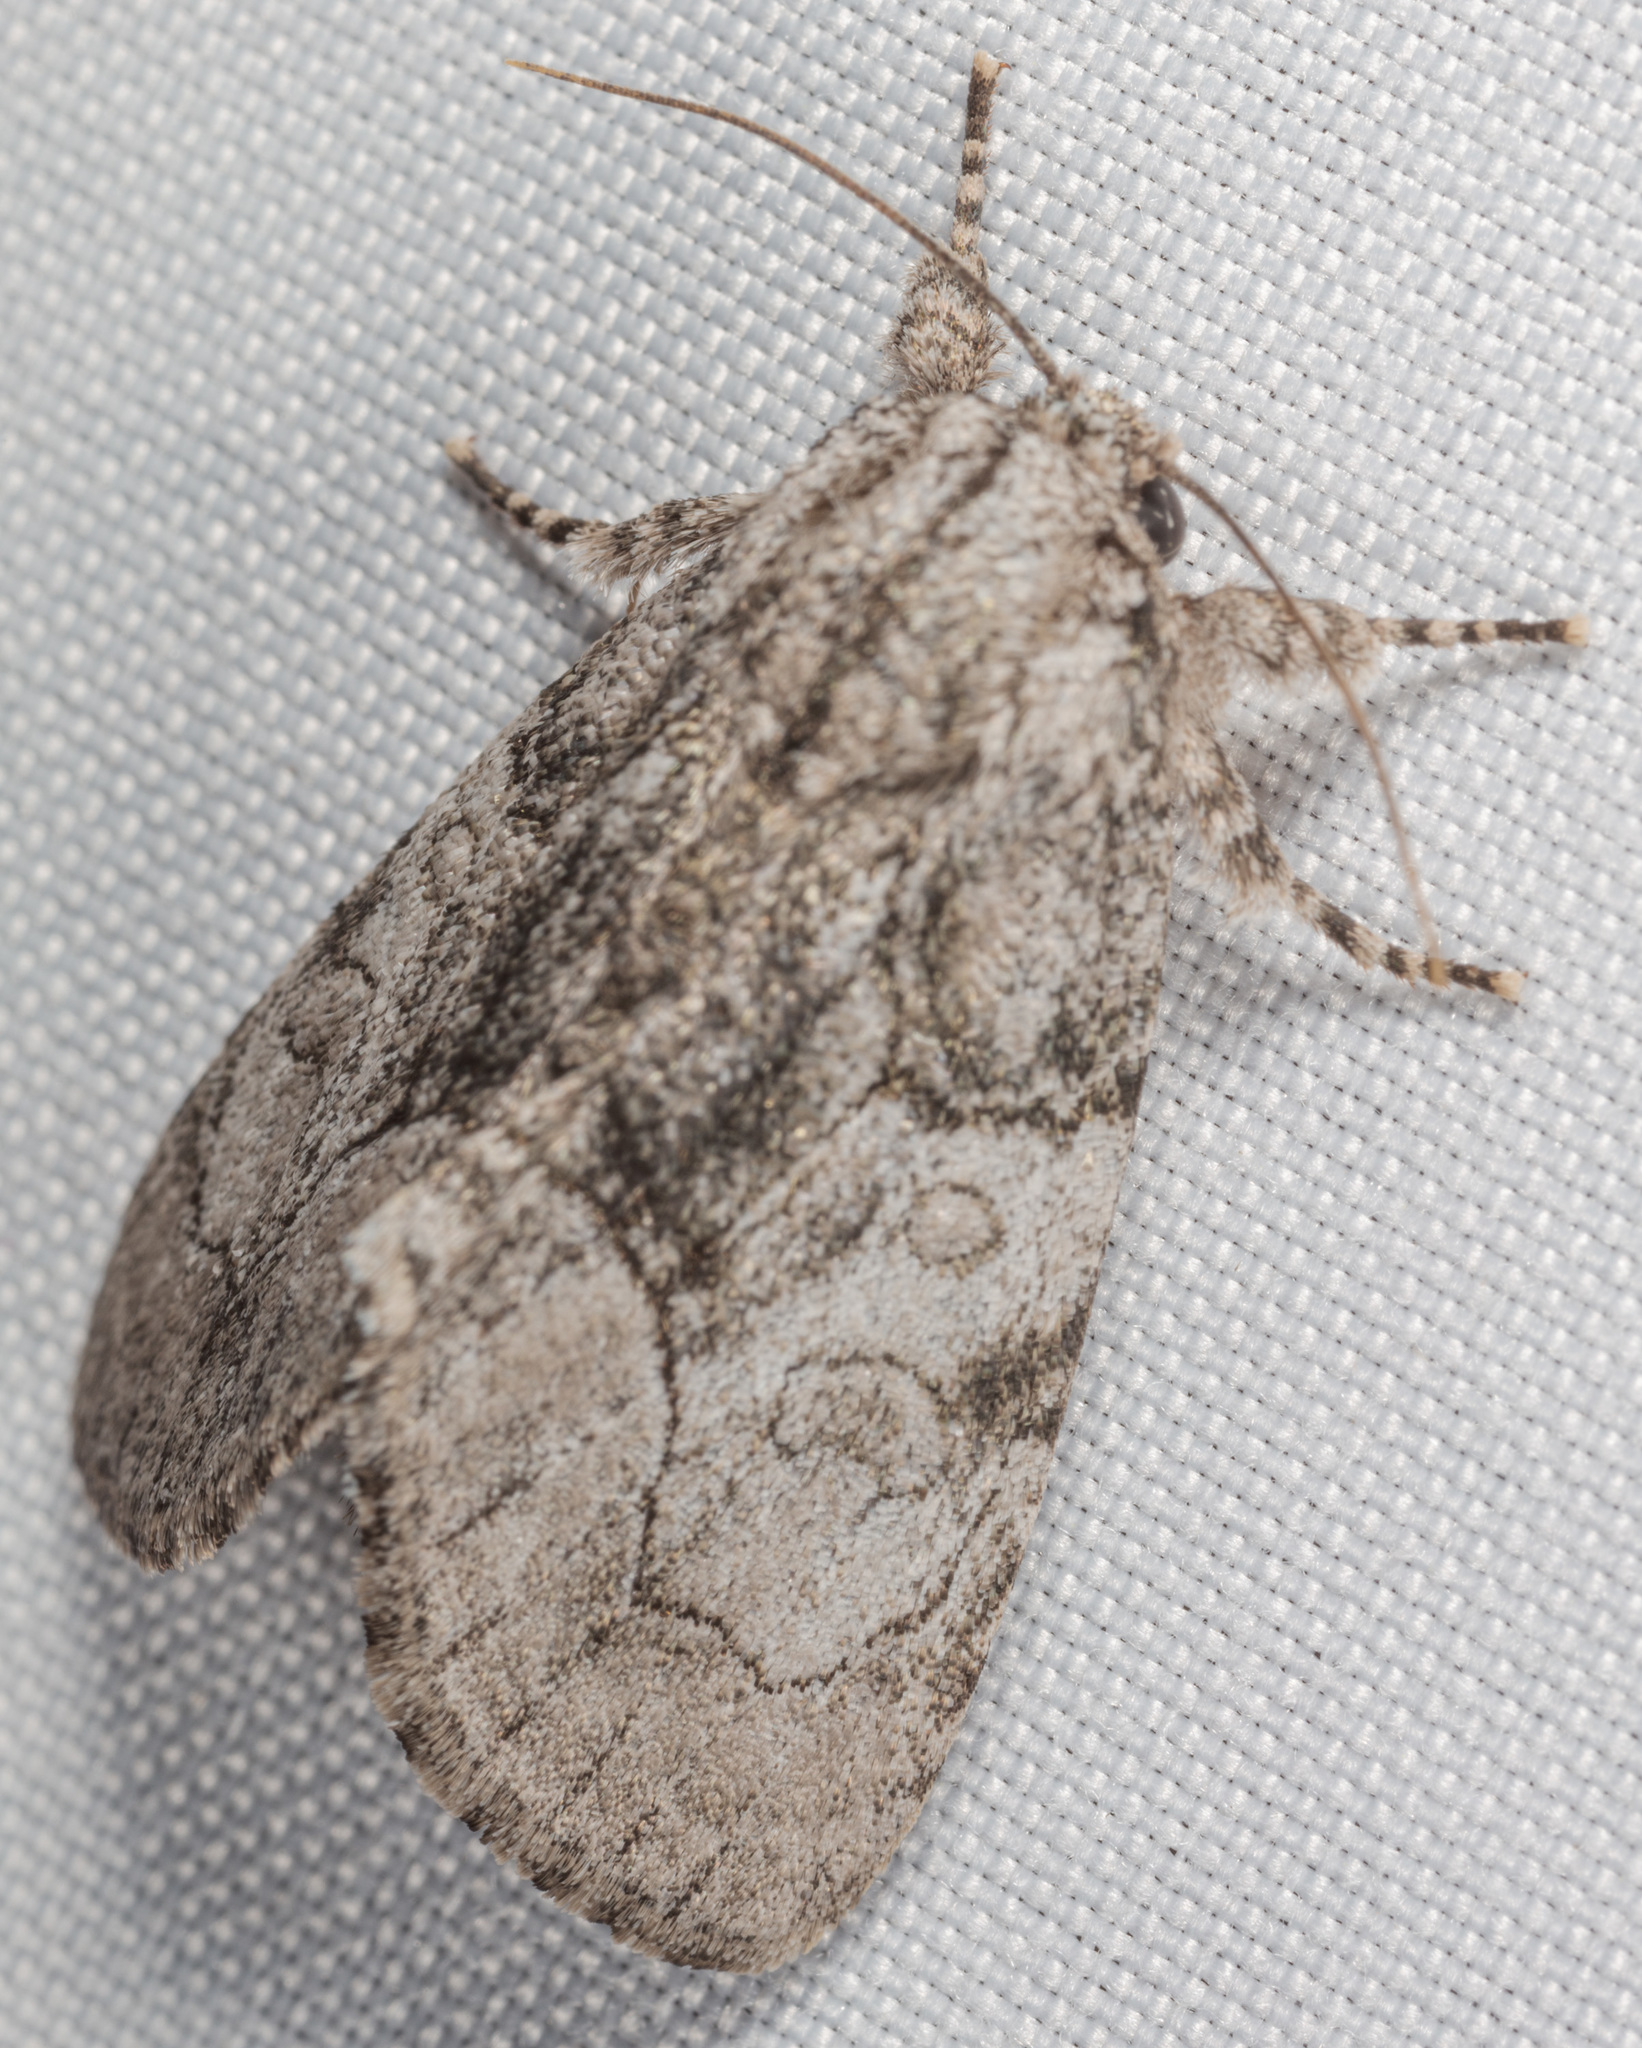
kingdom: Animalia
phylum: Arthropoda
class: Insecta
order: Lepidoptera
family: Noctuidae
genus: Raphia
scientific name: Raphia frater
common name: Brother
